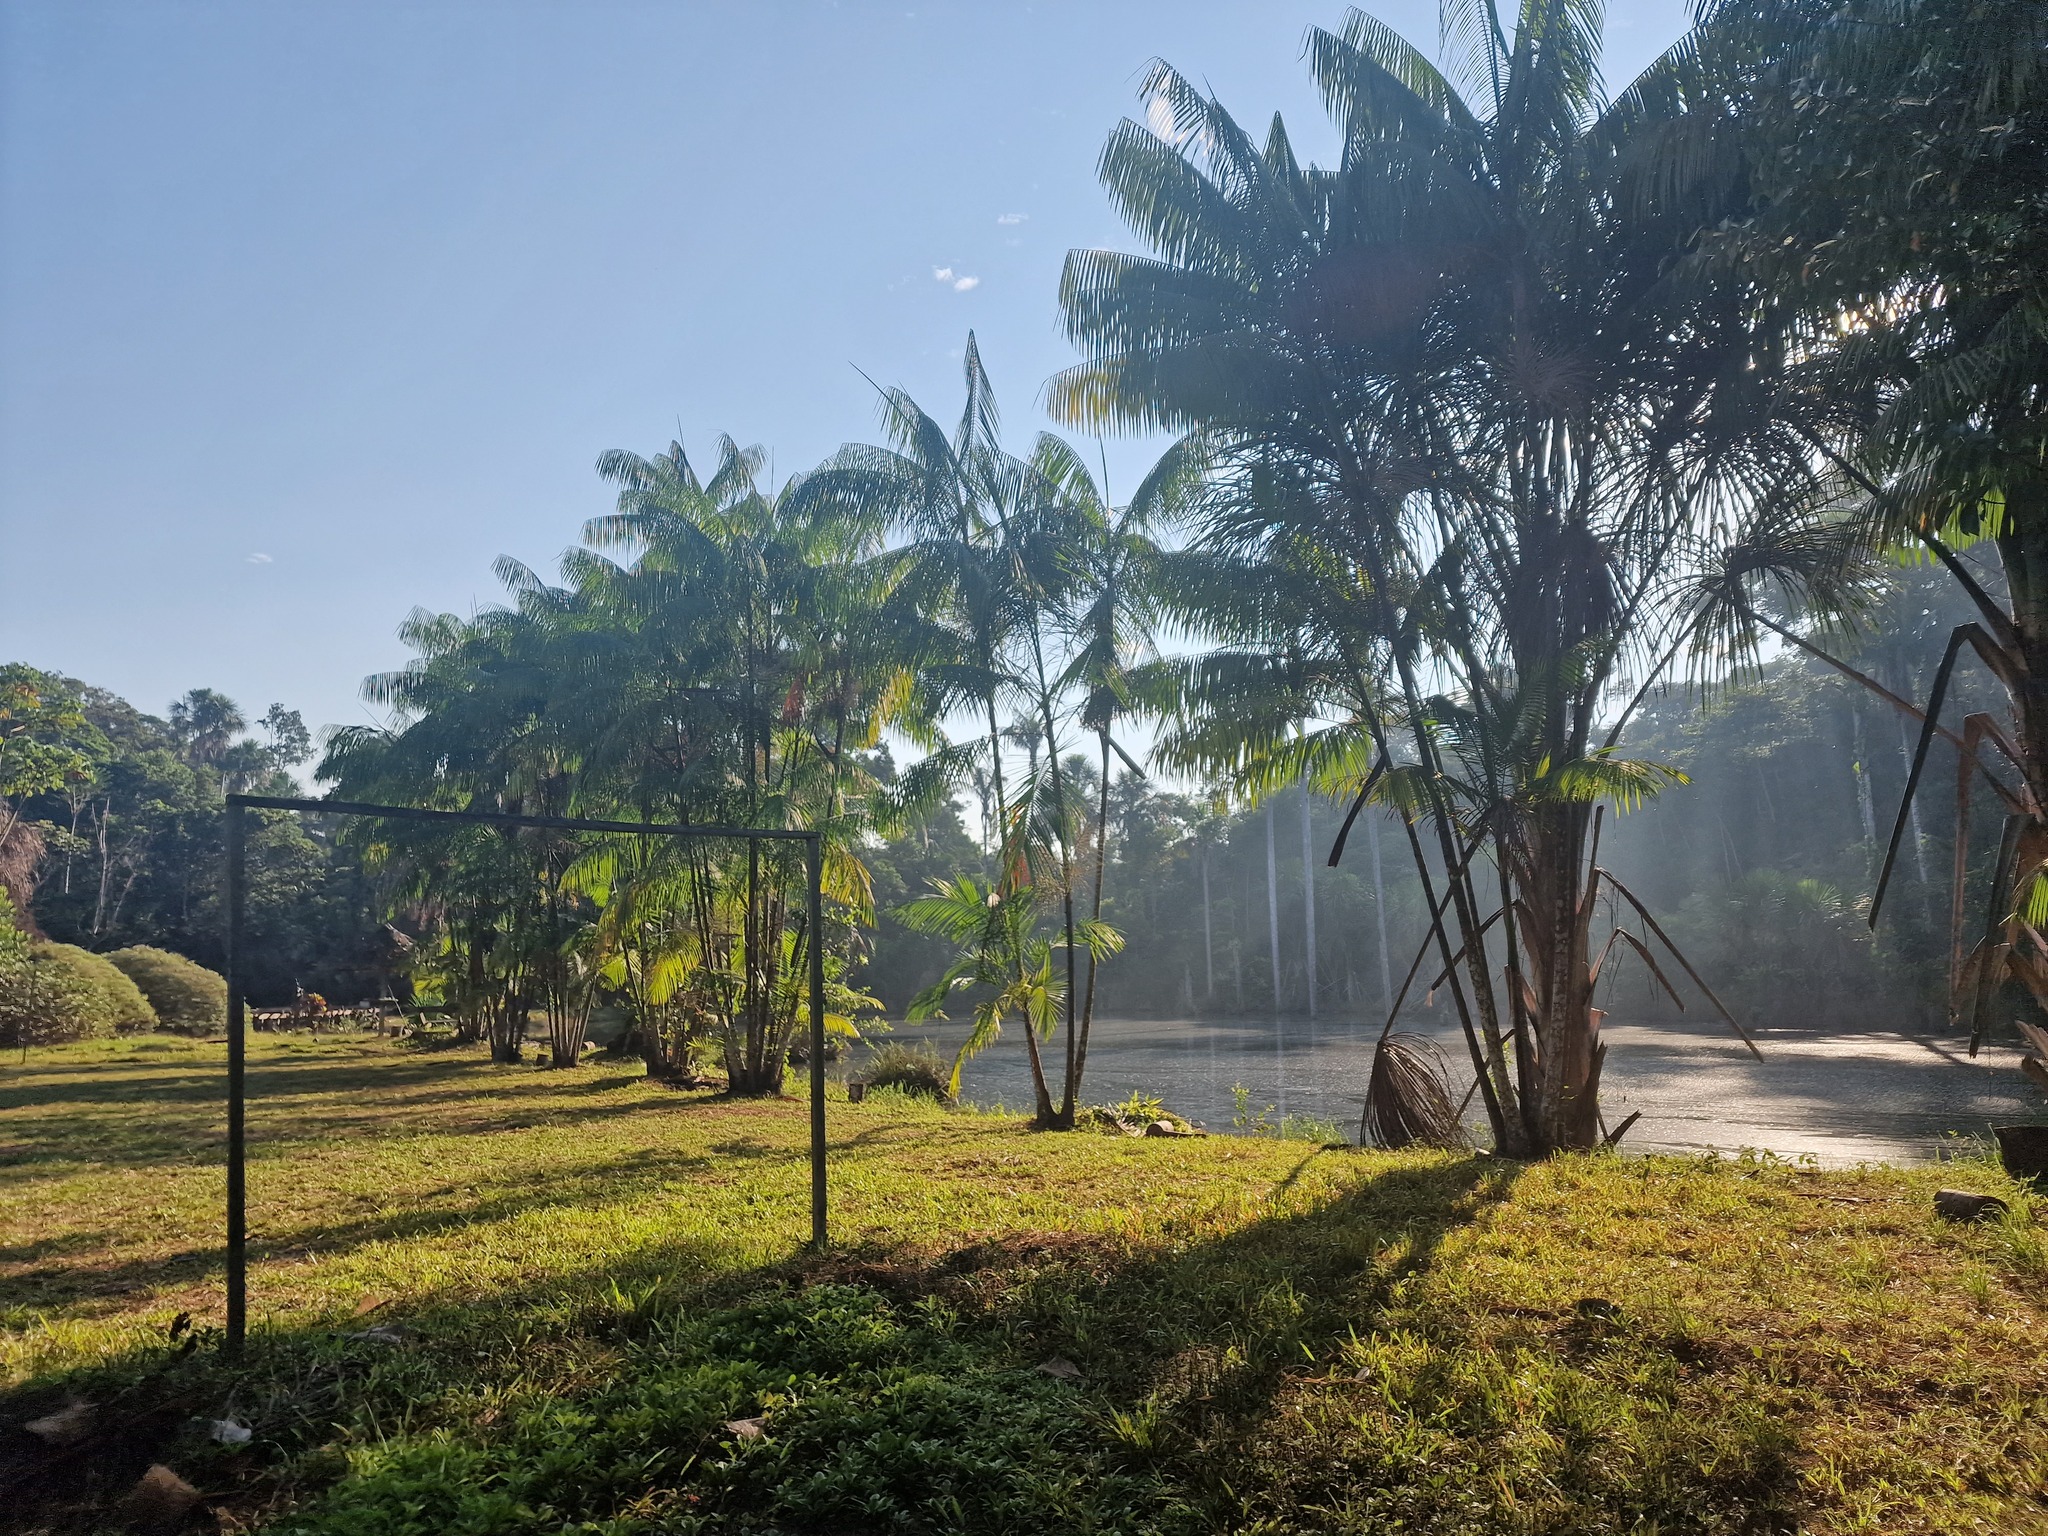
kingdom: Plantae
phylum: Tracheophyta
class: Liliopsida
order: Arecales
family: Arecaceae
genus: Euterpe
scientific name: Euterpe oleracea
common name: Assai palm
